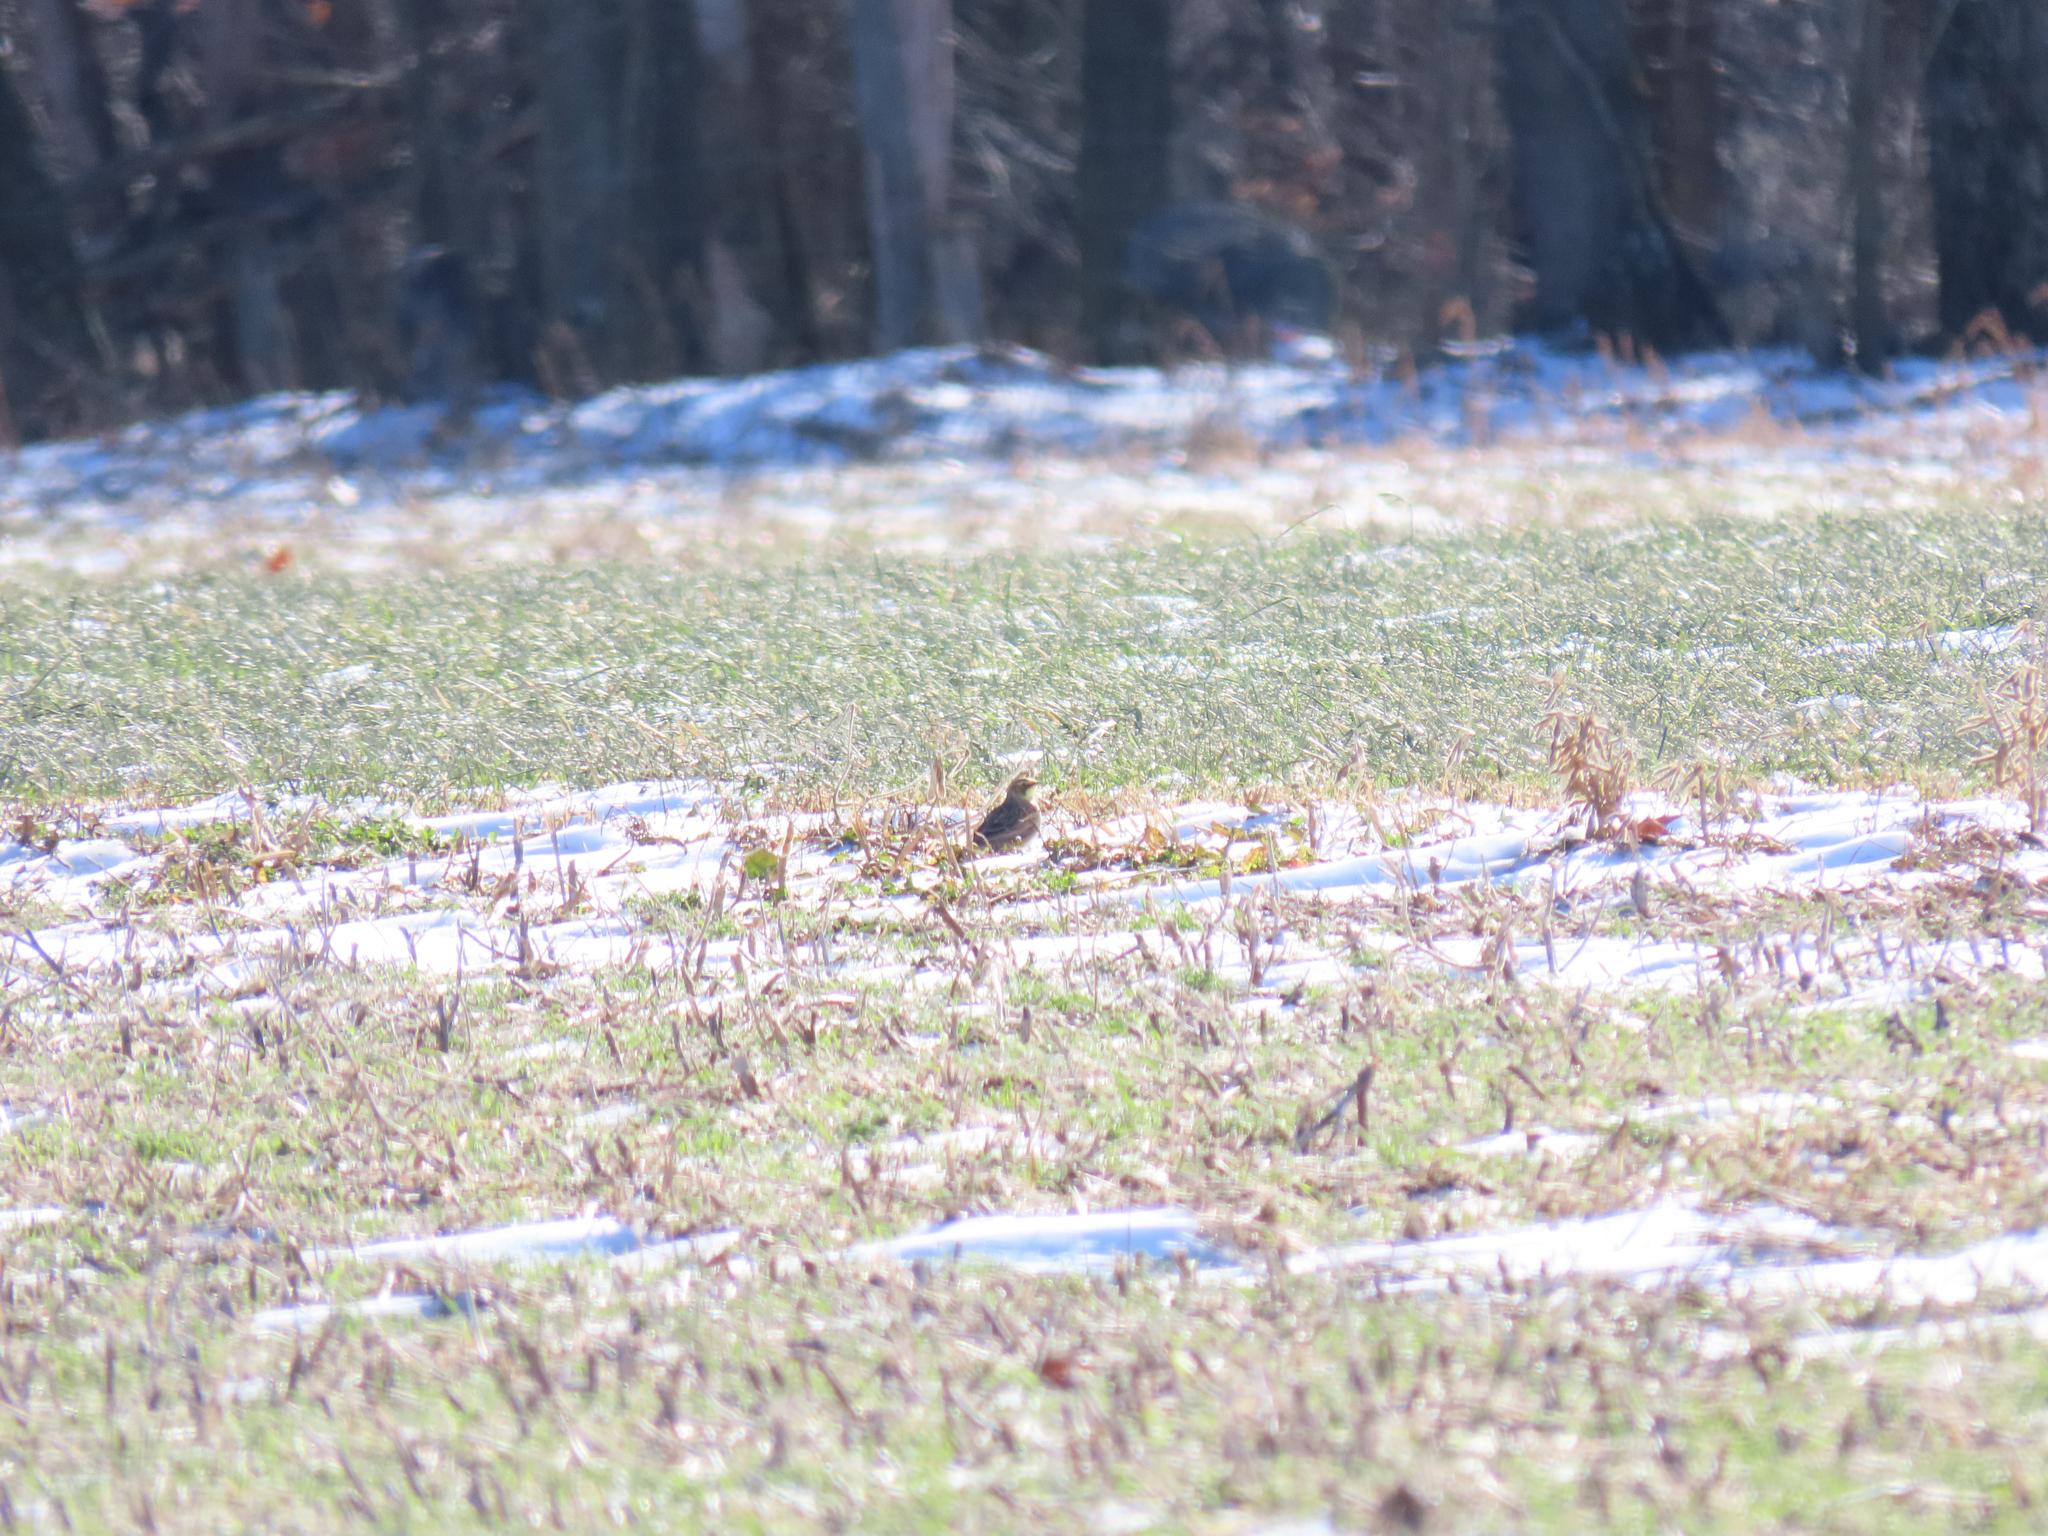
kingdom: Animalia
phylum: Chordata
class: Aves
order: Passeriformes
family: Alaudidae
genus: Eremophila
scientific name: Eremophila alpestris
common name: Horned lark
